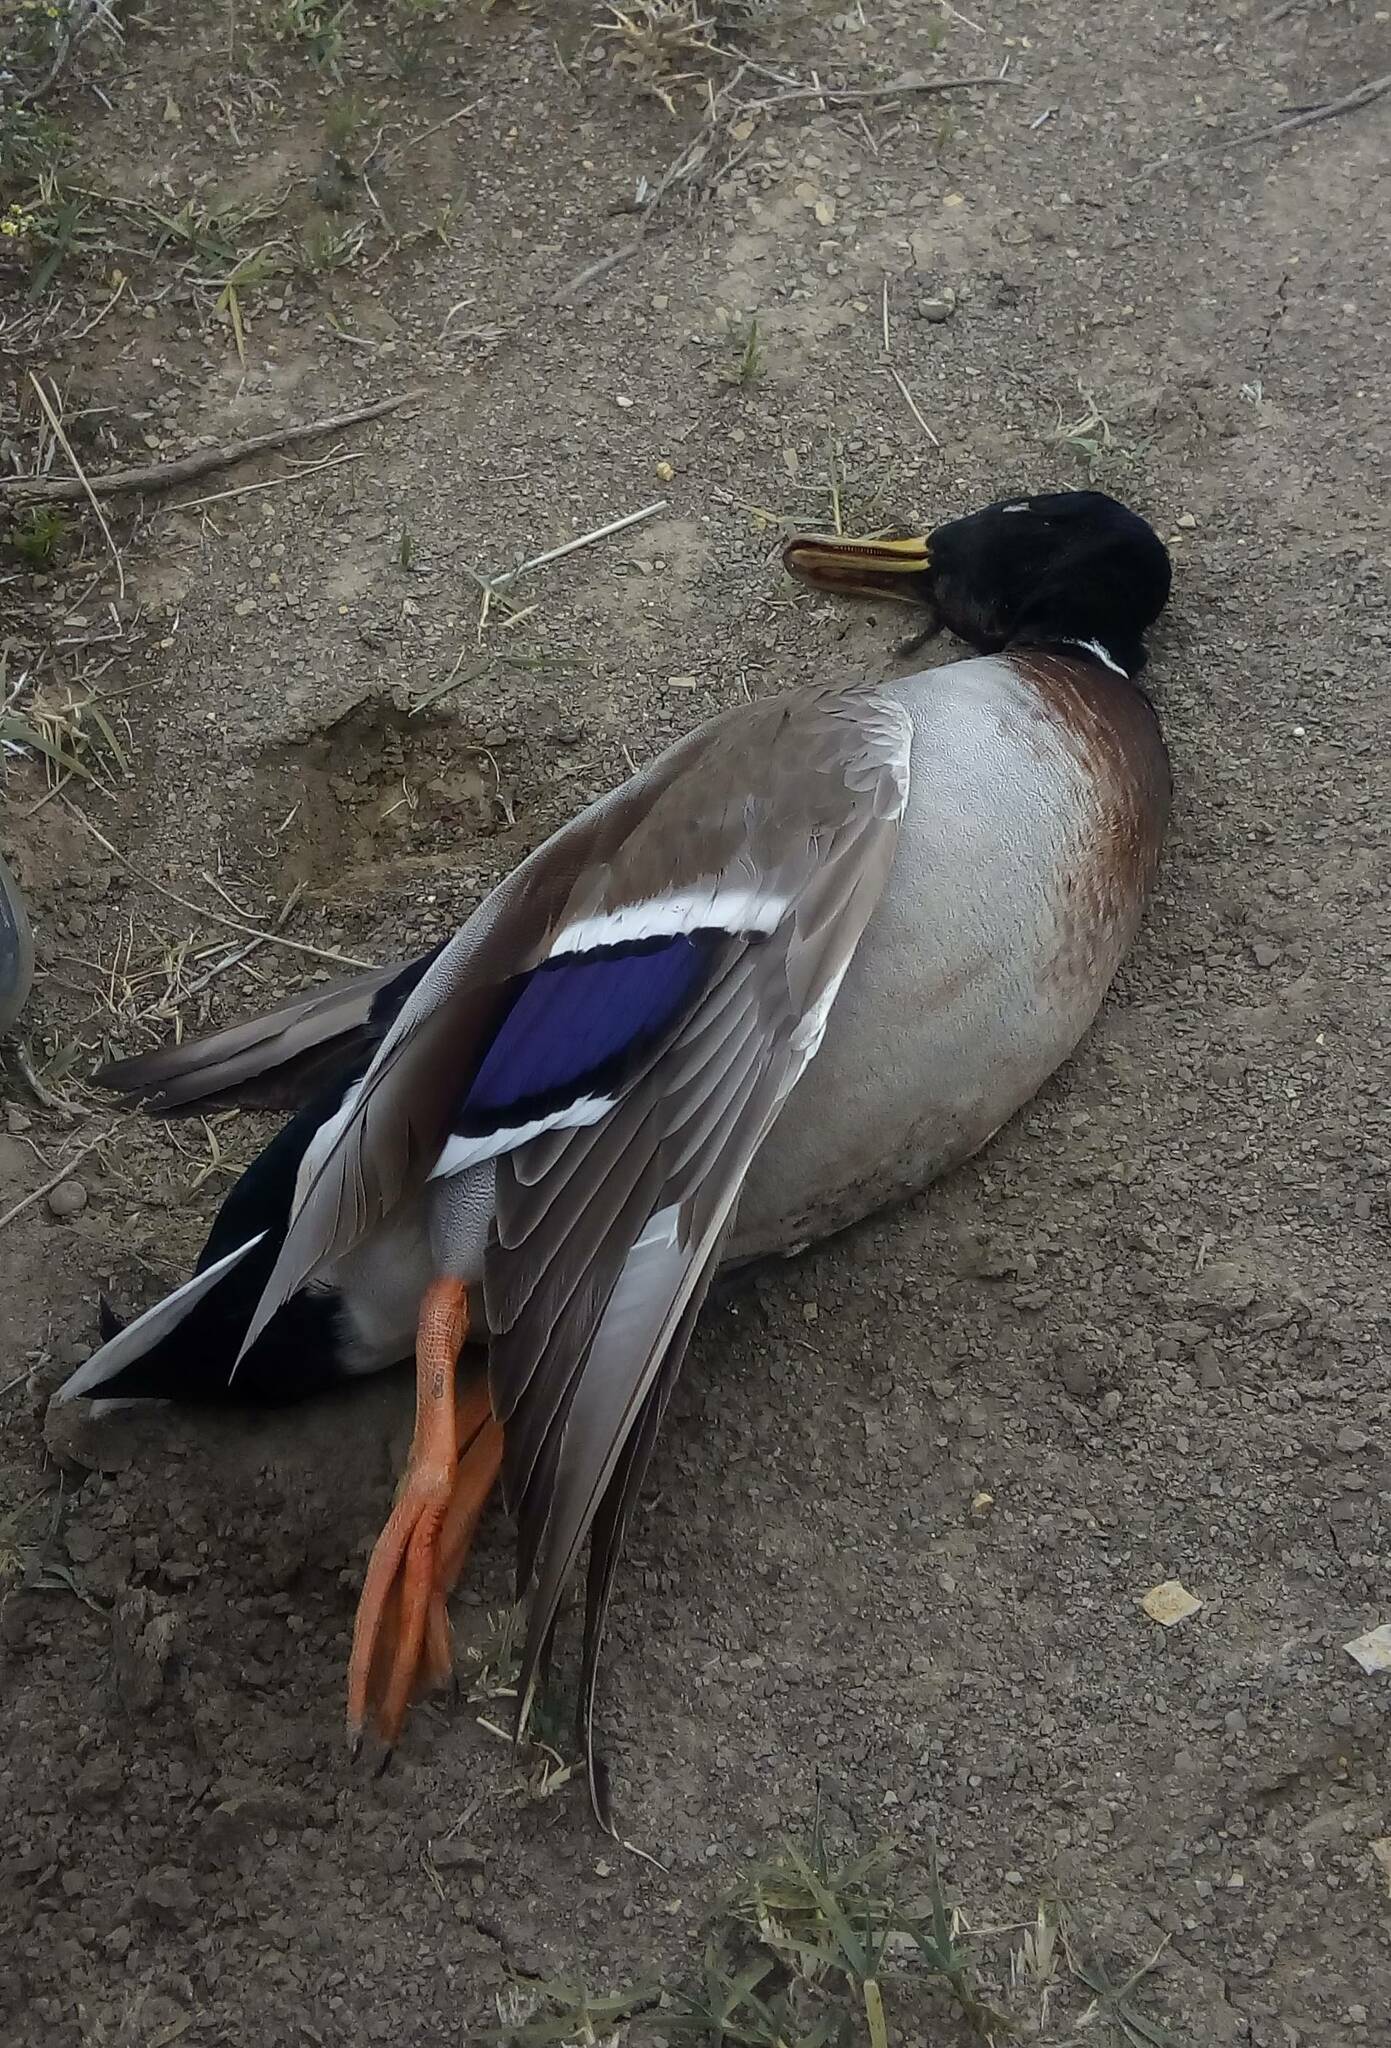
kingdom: Animalia
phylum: Chordata
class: Aves
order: Anseriformes
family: Anatidae
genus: Anas
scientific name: Anas platyrhynchos
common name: Mallard
